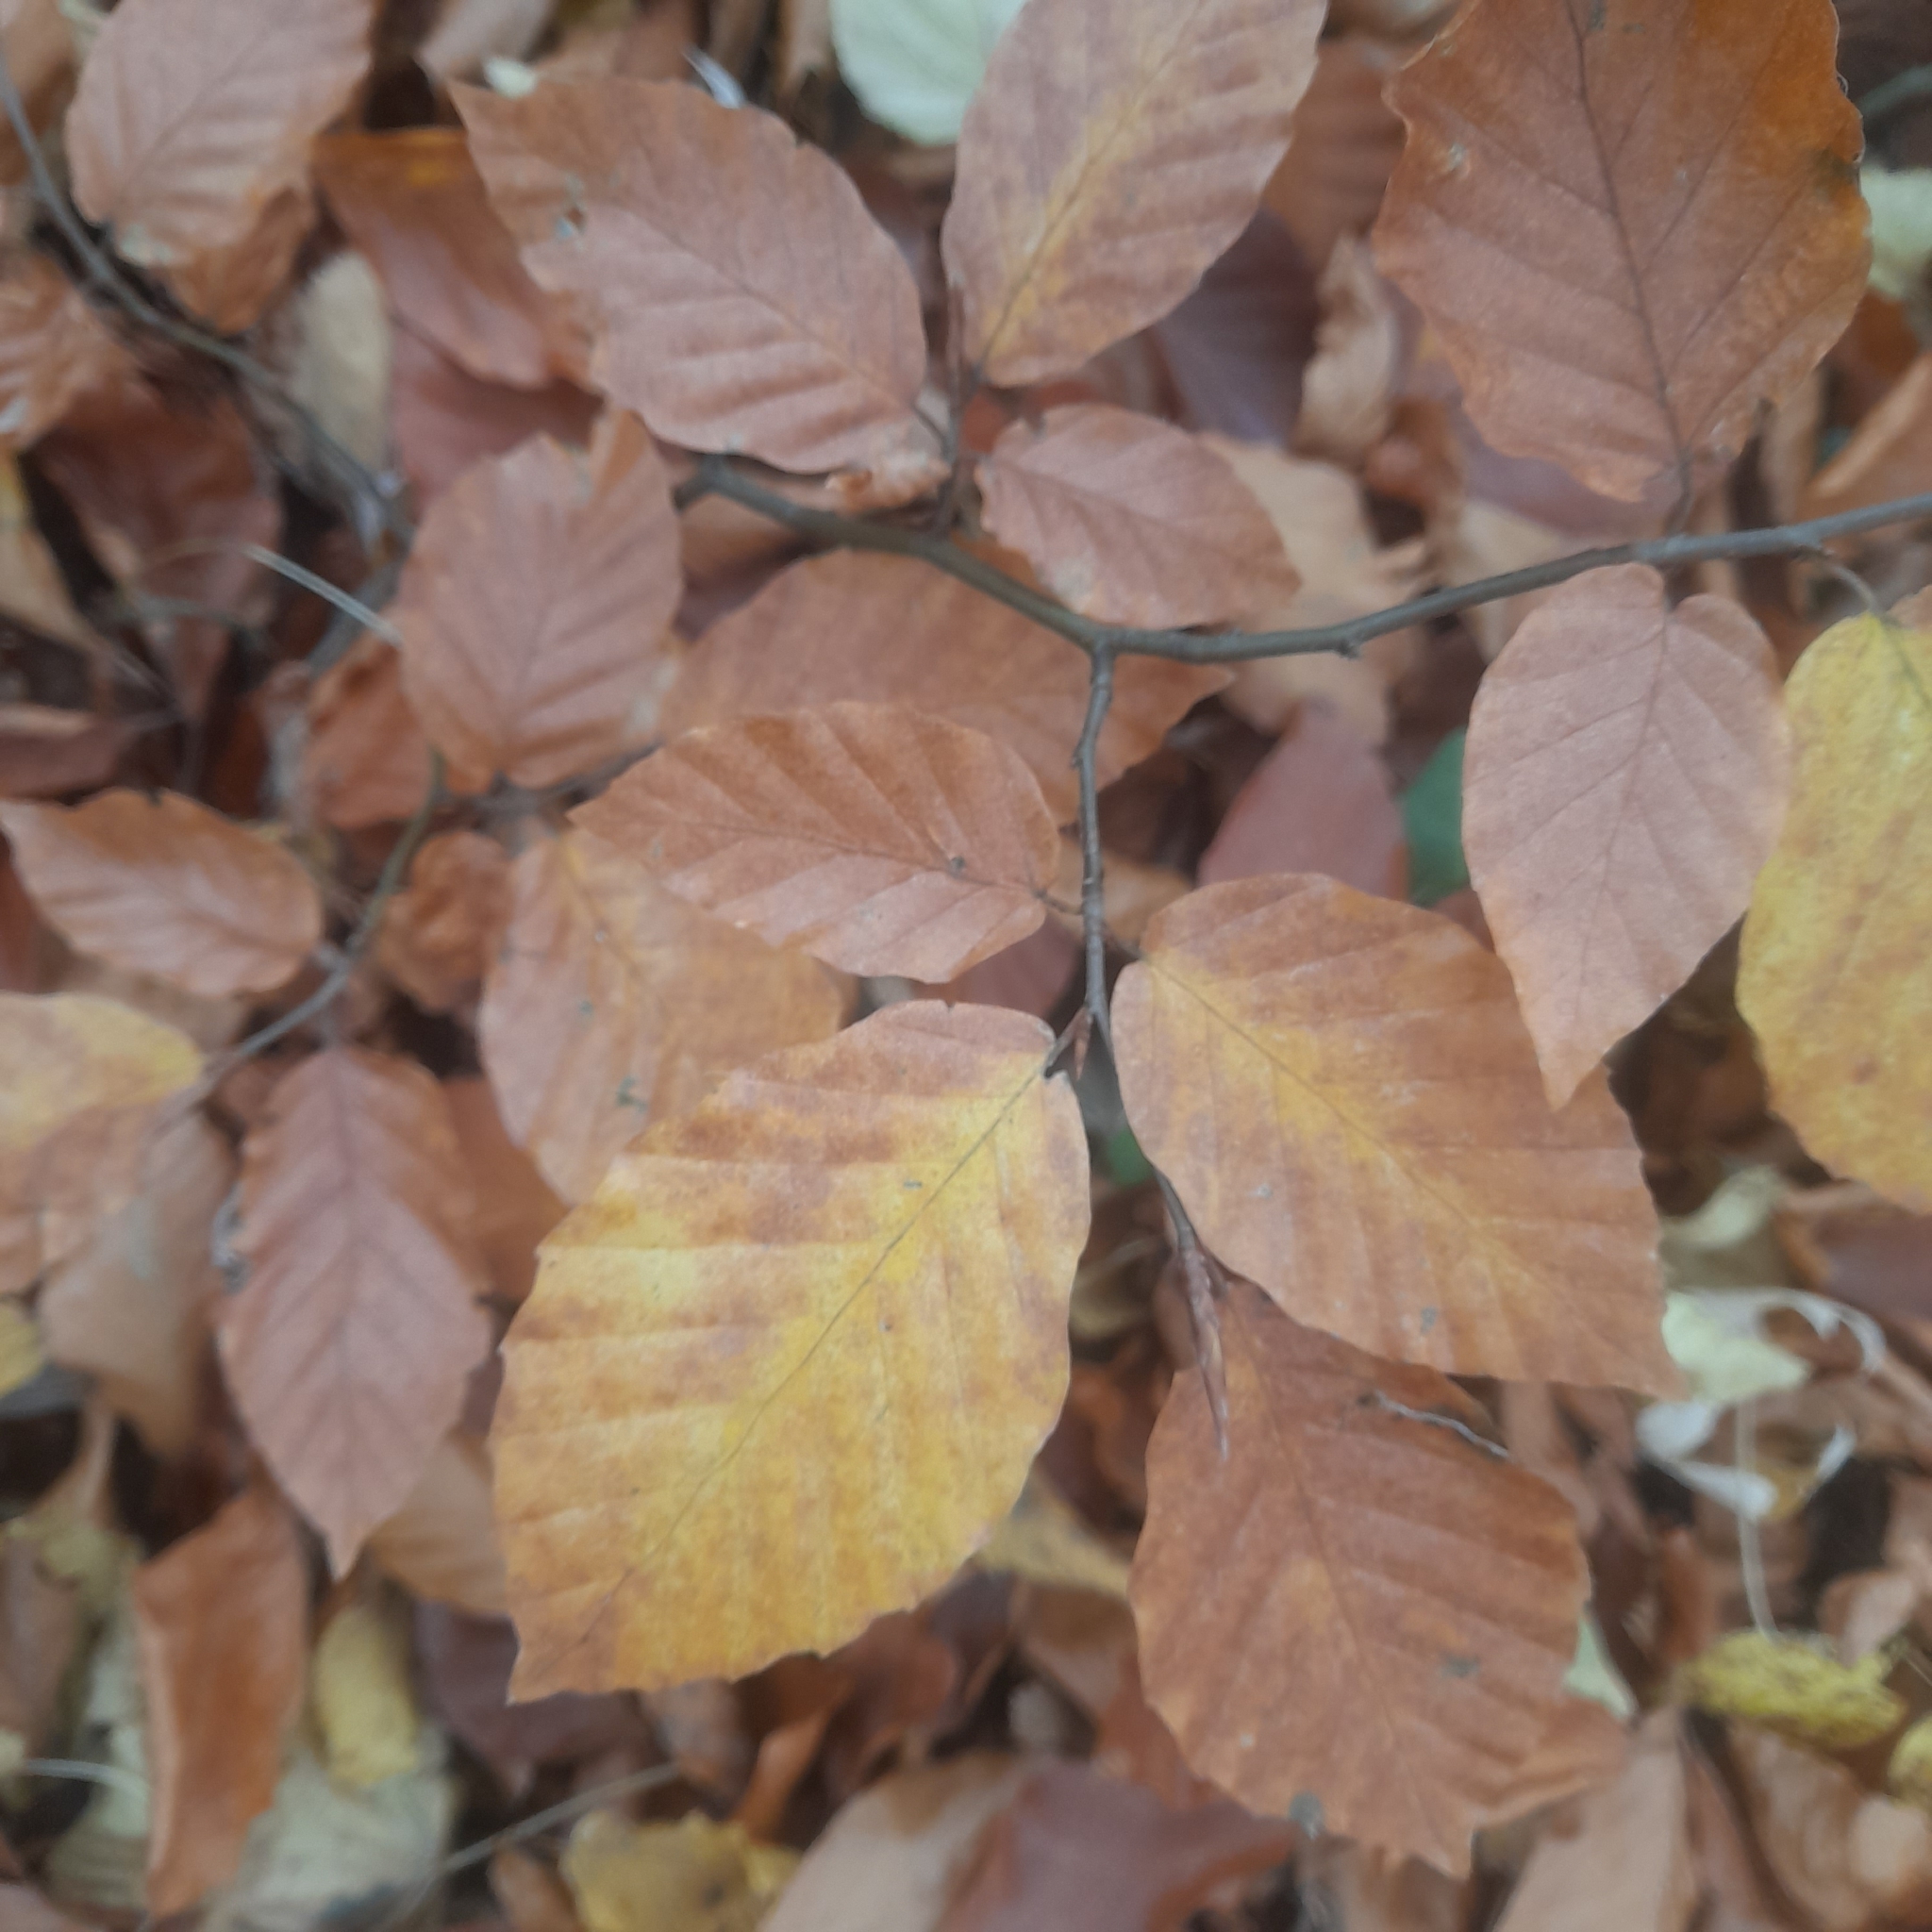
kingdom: Plantae
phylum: Tracheophyta
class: Magnoliopsida
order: Fagales
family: Fagaceae
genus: Fagus
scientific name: Fagus sylvatica
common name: Beech
